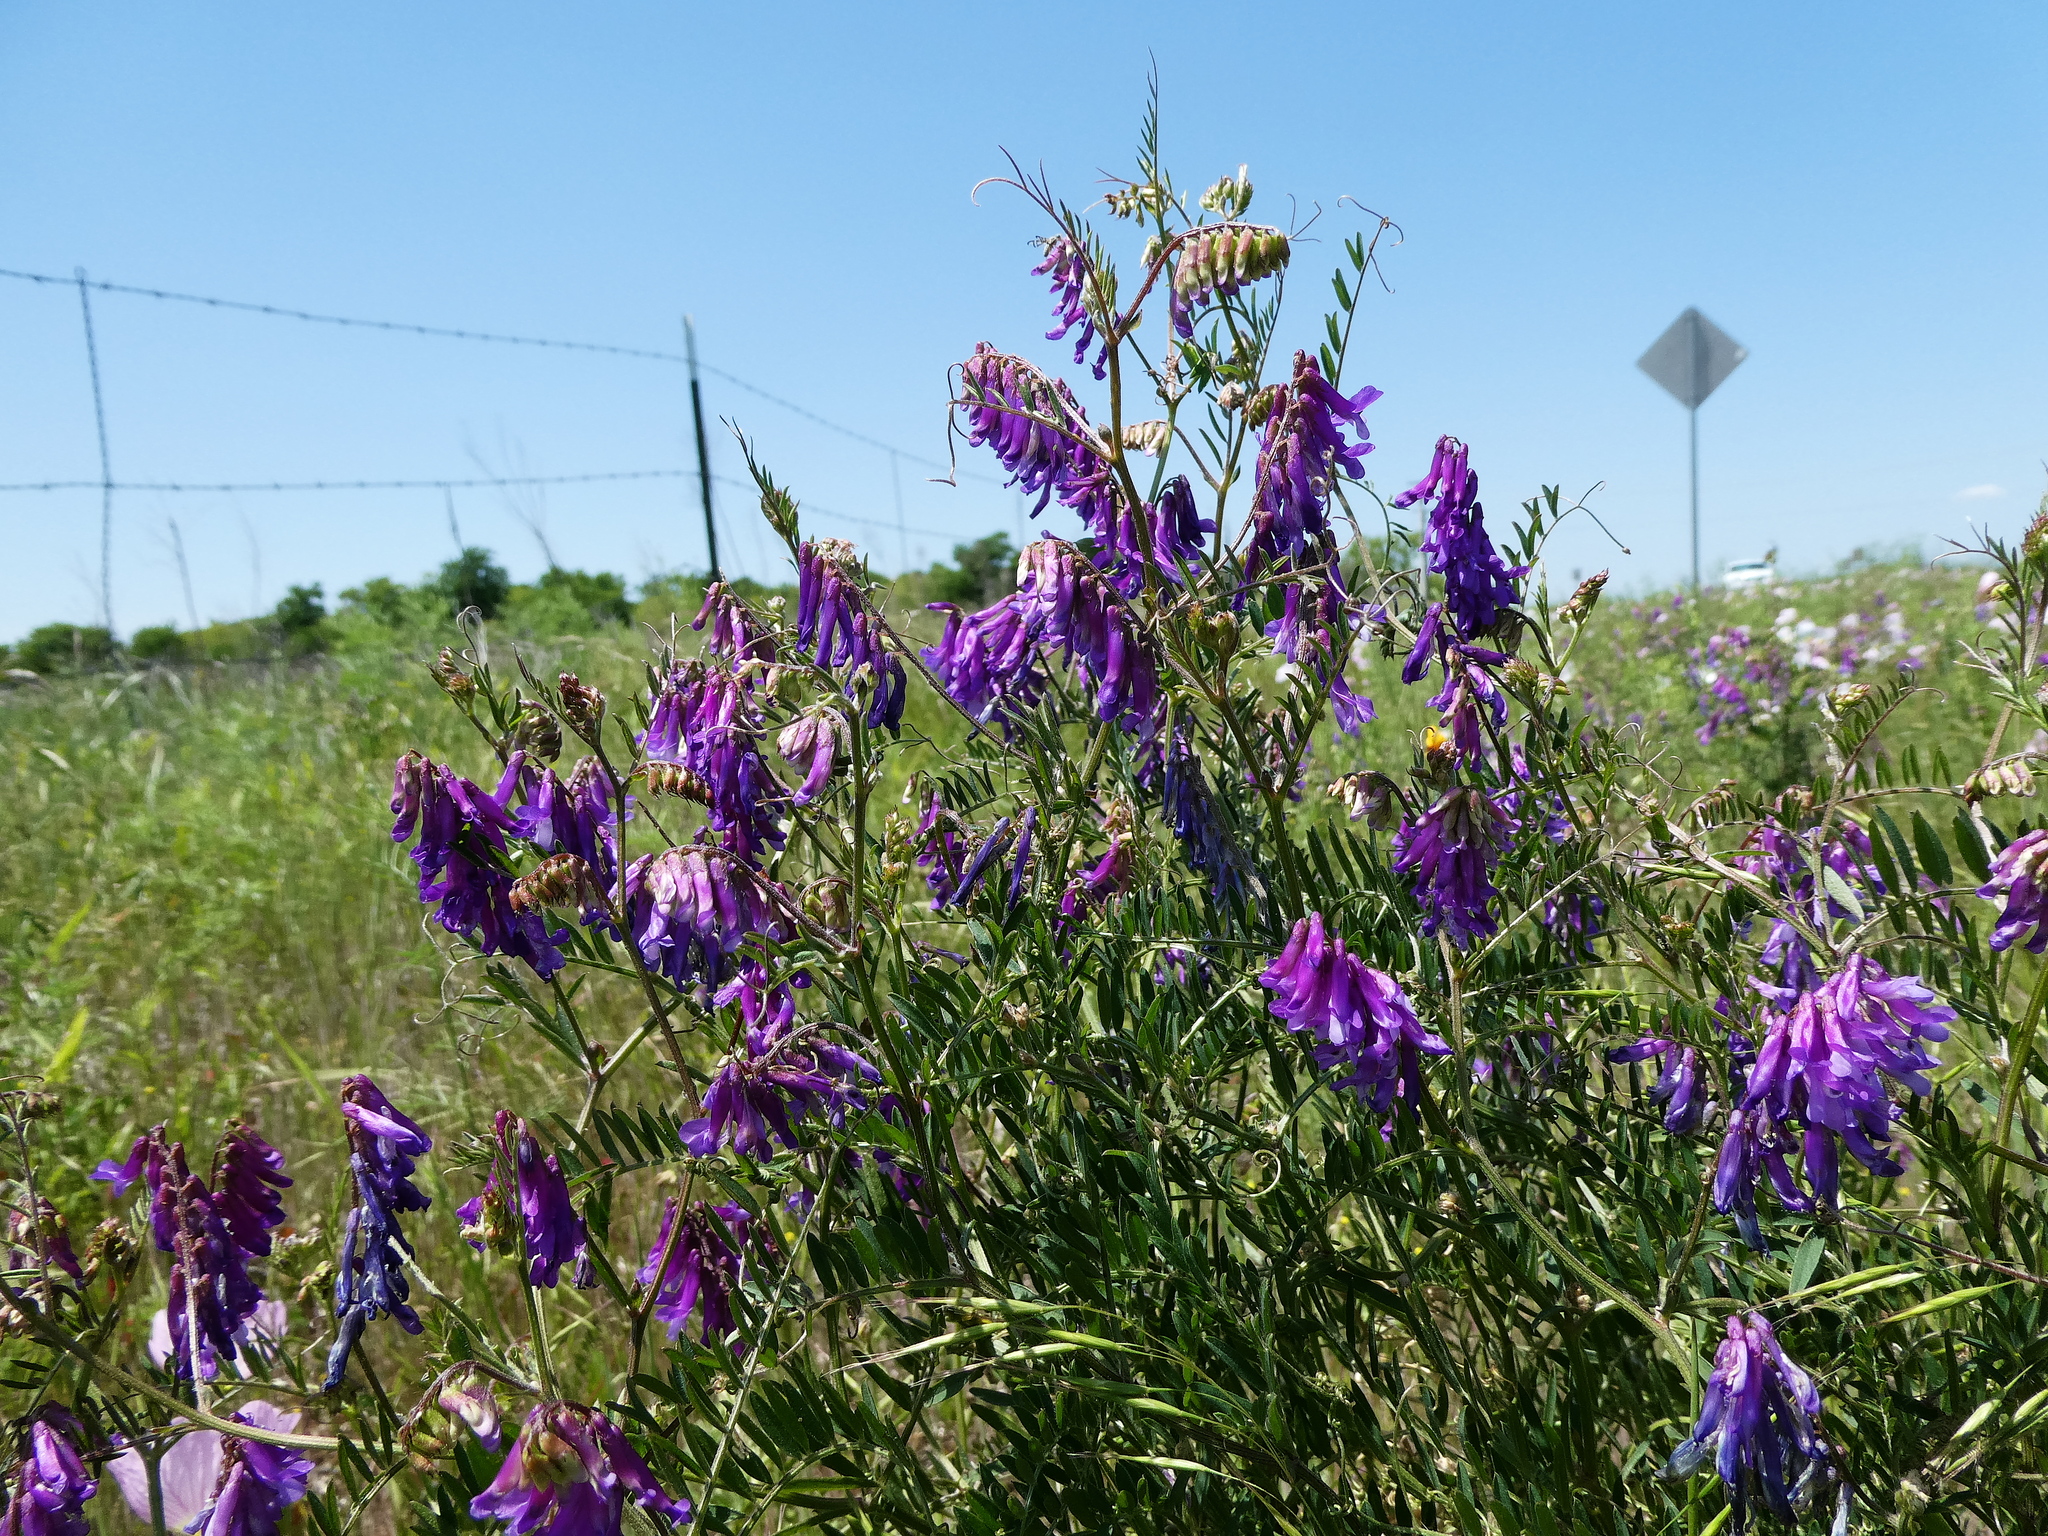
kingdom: Plantae
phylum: Tracheophyta
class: Magnoliopsida
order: Fabales
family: Fabaceae
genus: Vicia
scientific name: Vicia villosa
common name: Fodder vetch
